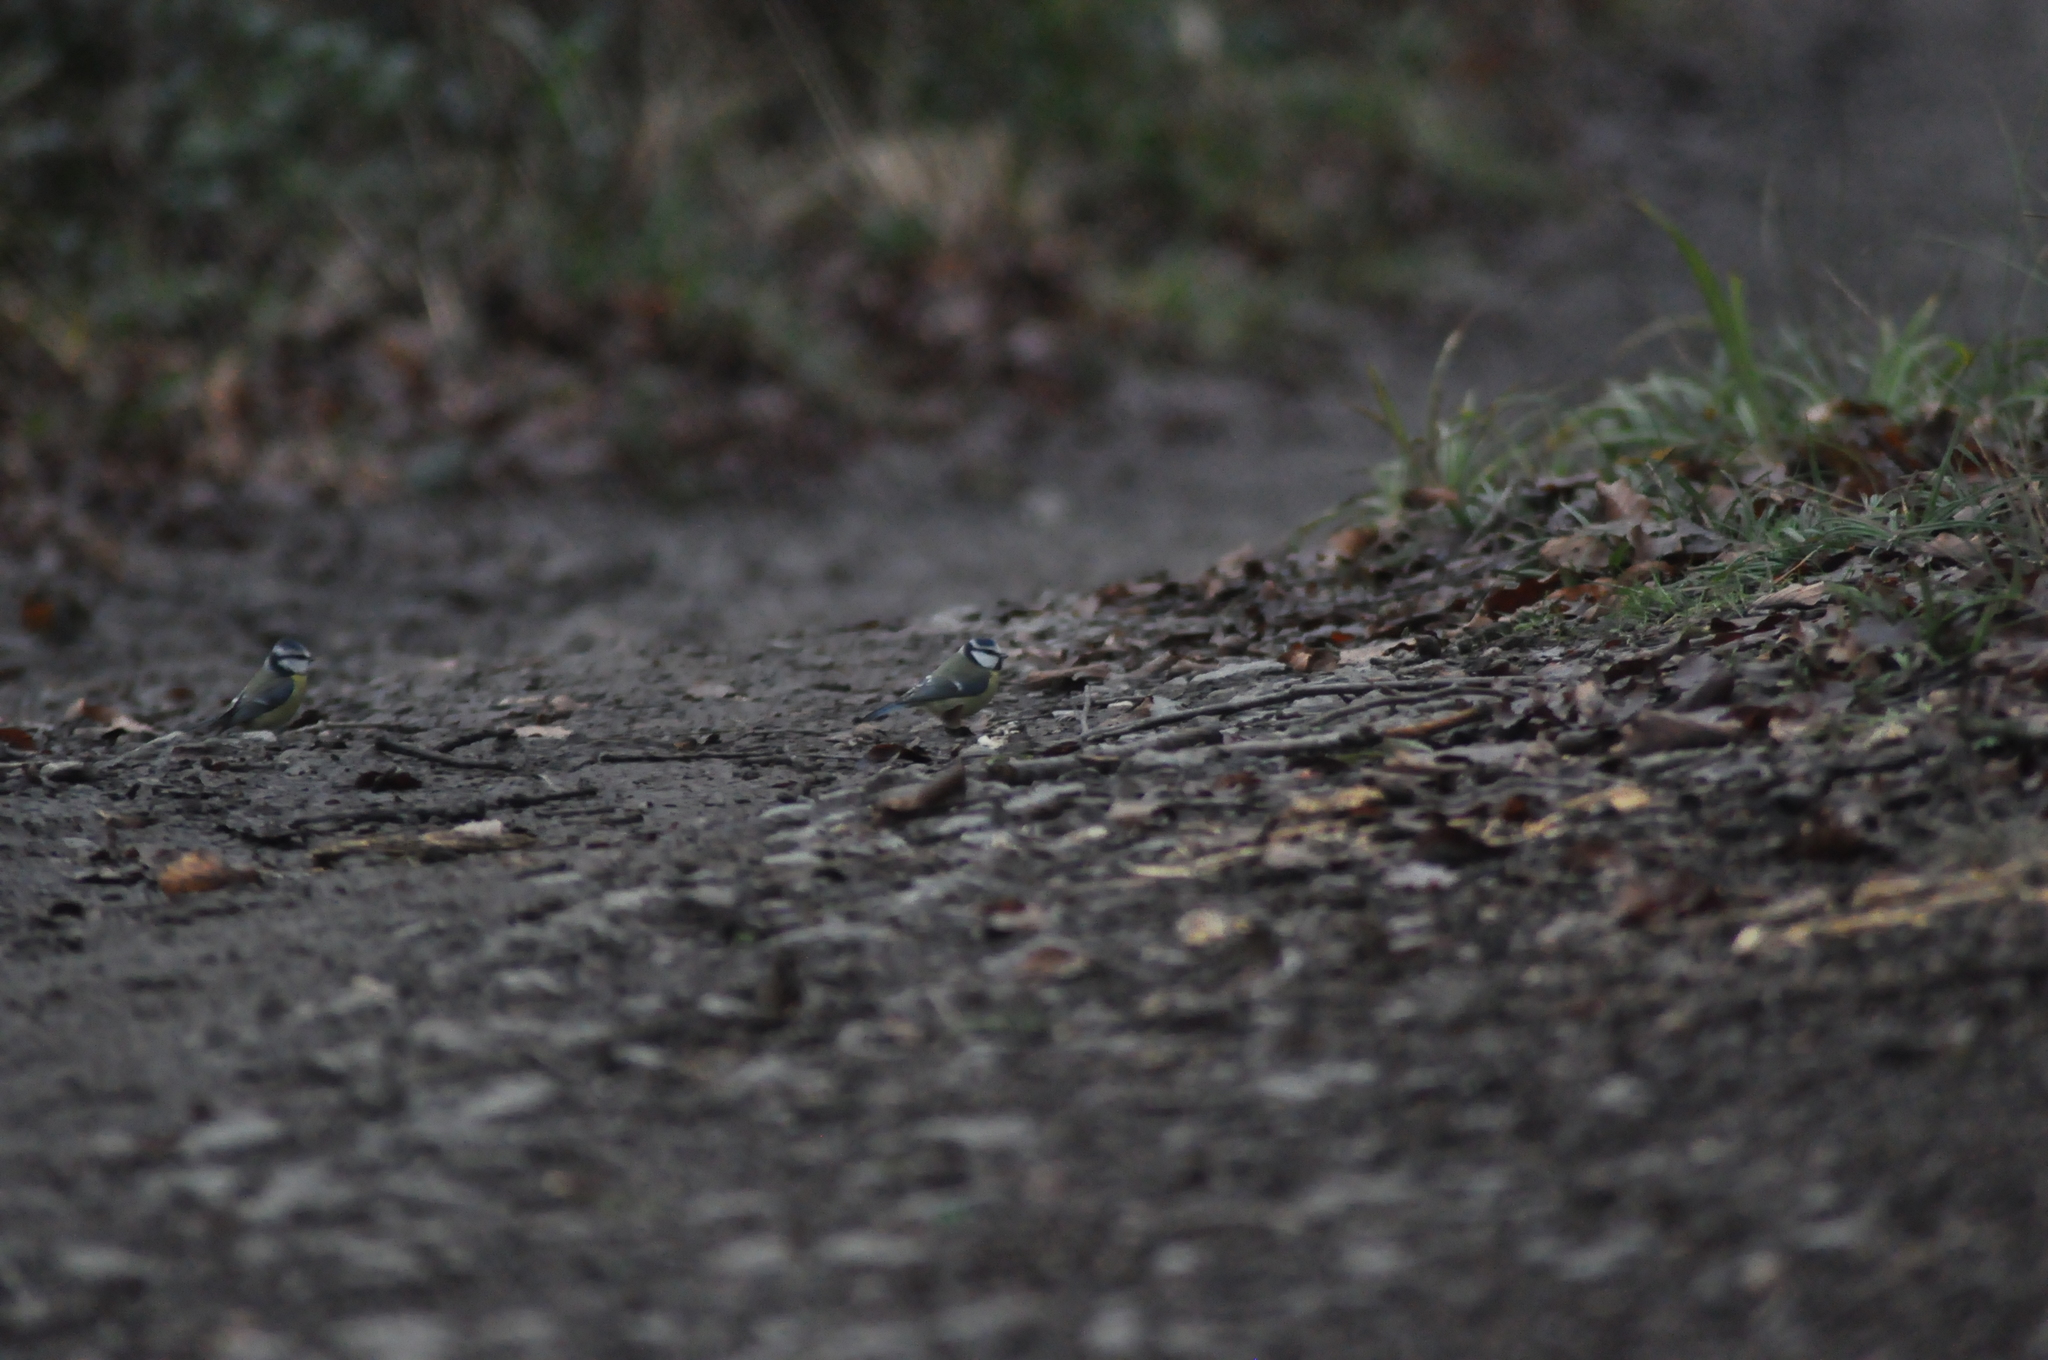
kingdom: Animalia
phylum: Chordata
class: Aves
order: Passeriformes
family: Paridae
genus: Cyanistes
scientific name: Cyanistes caeruleus
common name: Eurasian blue tit
